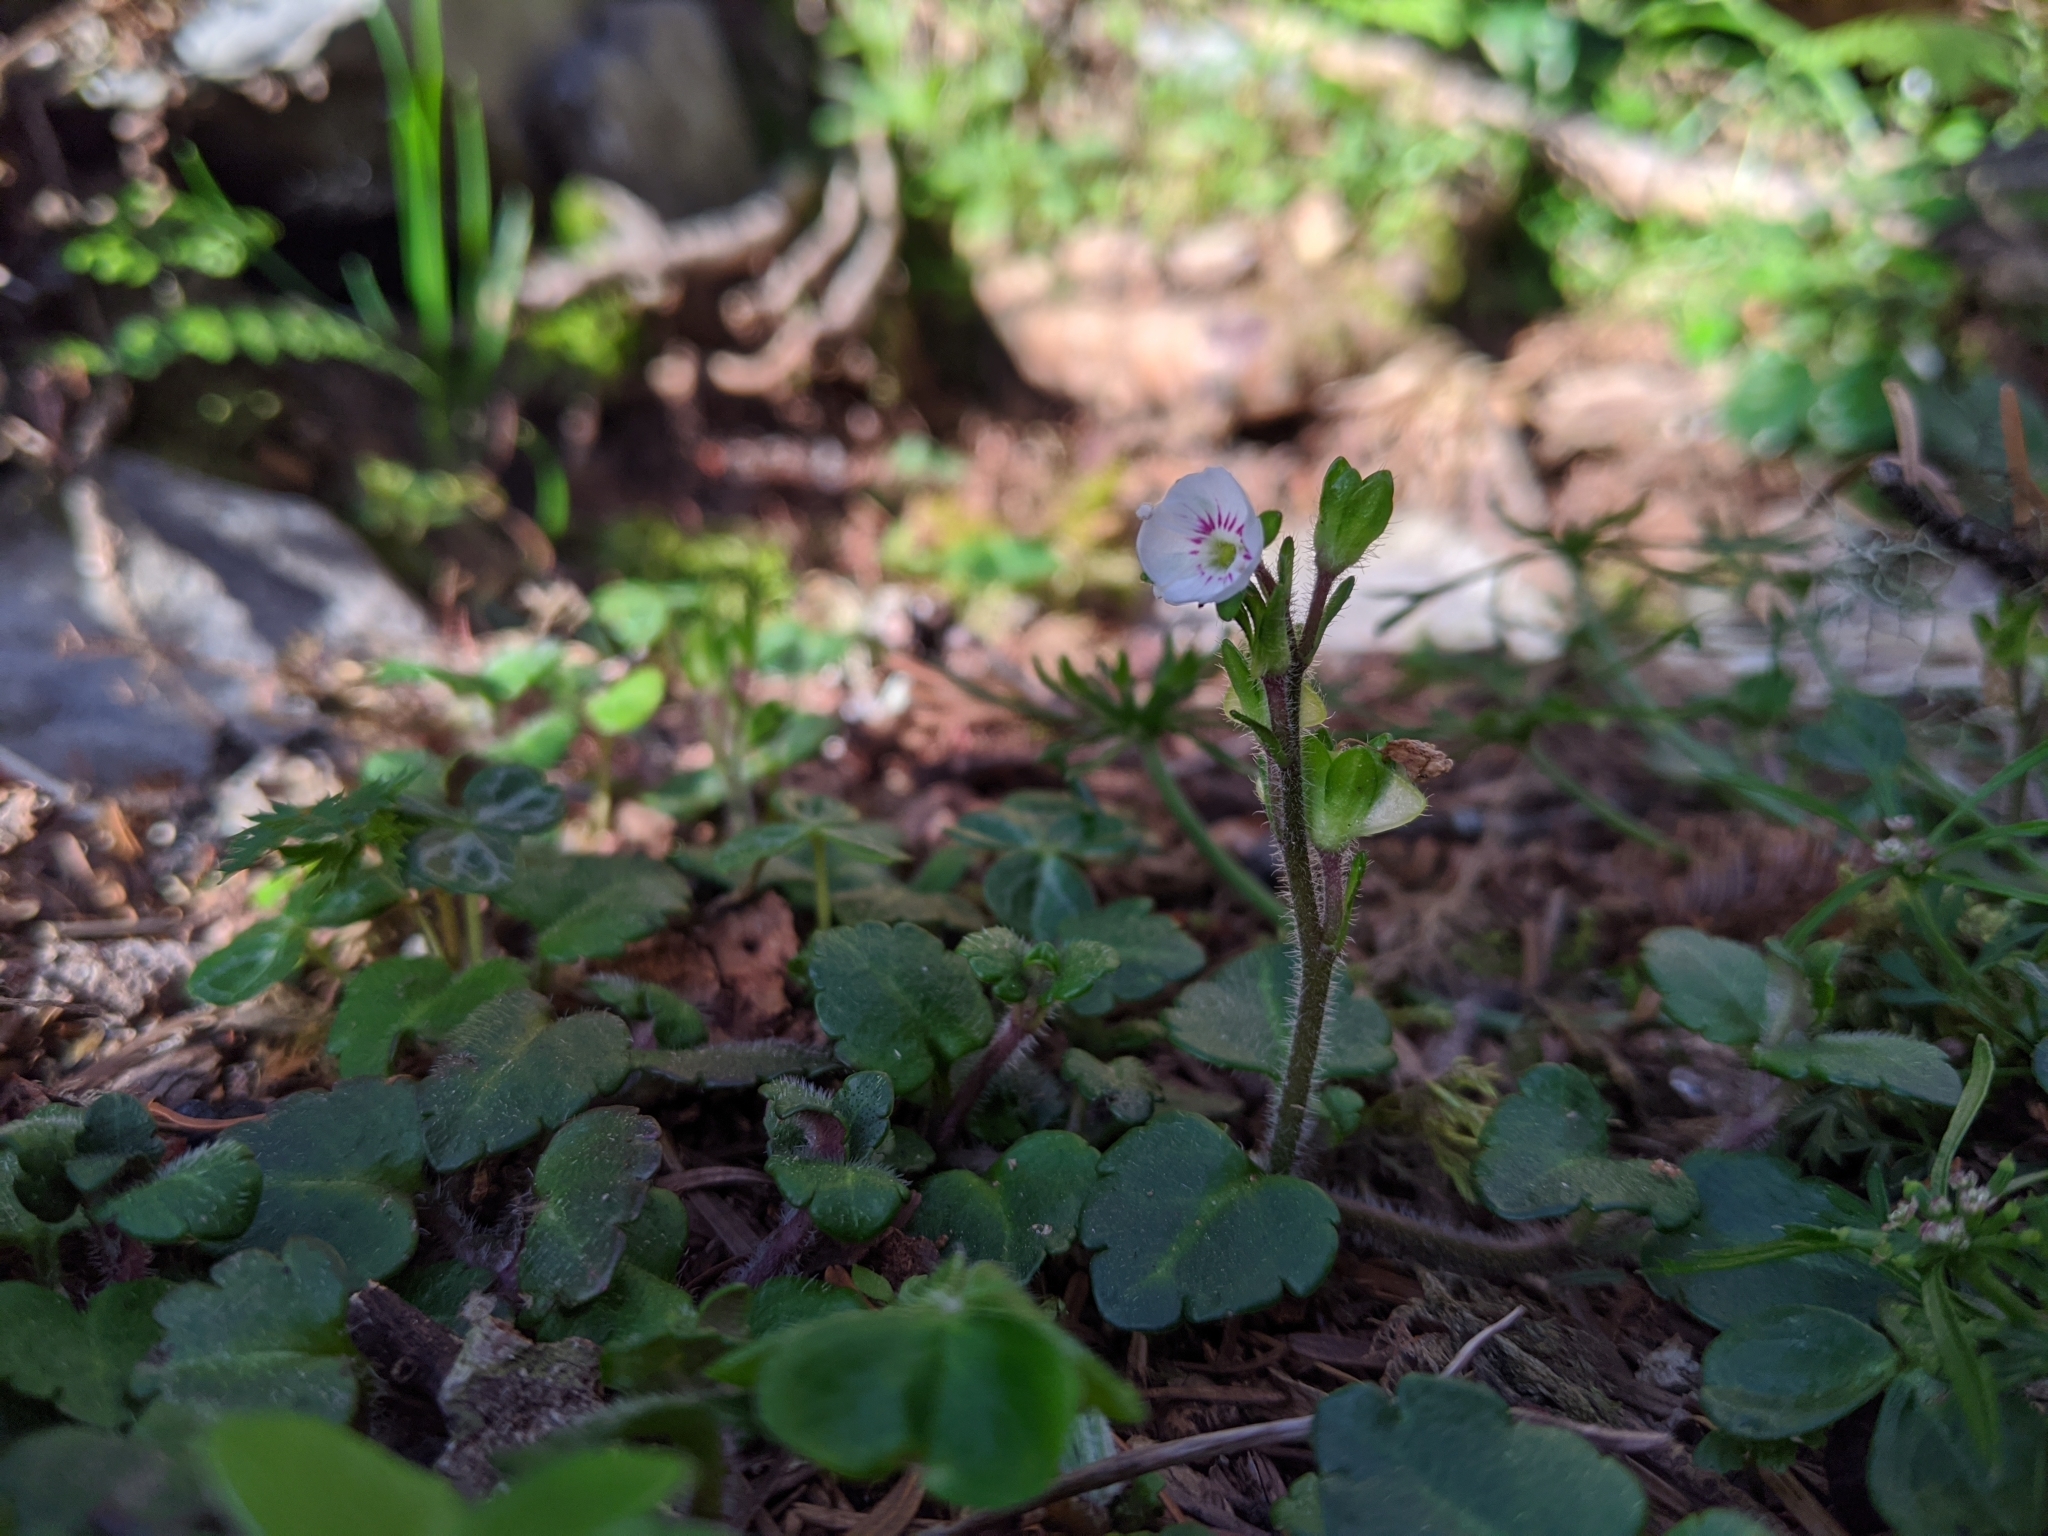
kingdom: Plantae
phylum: Tracheophyta
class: Magnoliopsida
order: Lamiales
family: Plantaginaceae
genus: Veronica
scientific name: Veronica oligosperma
